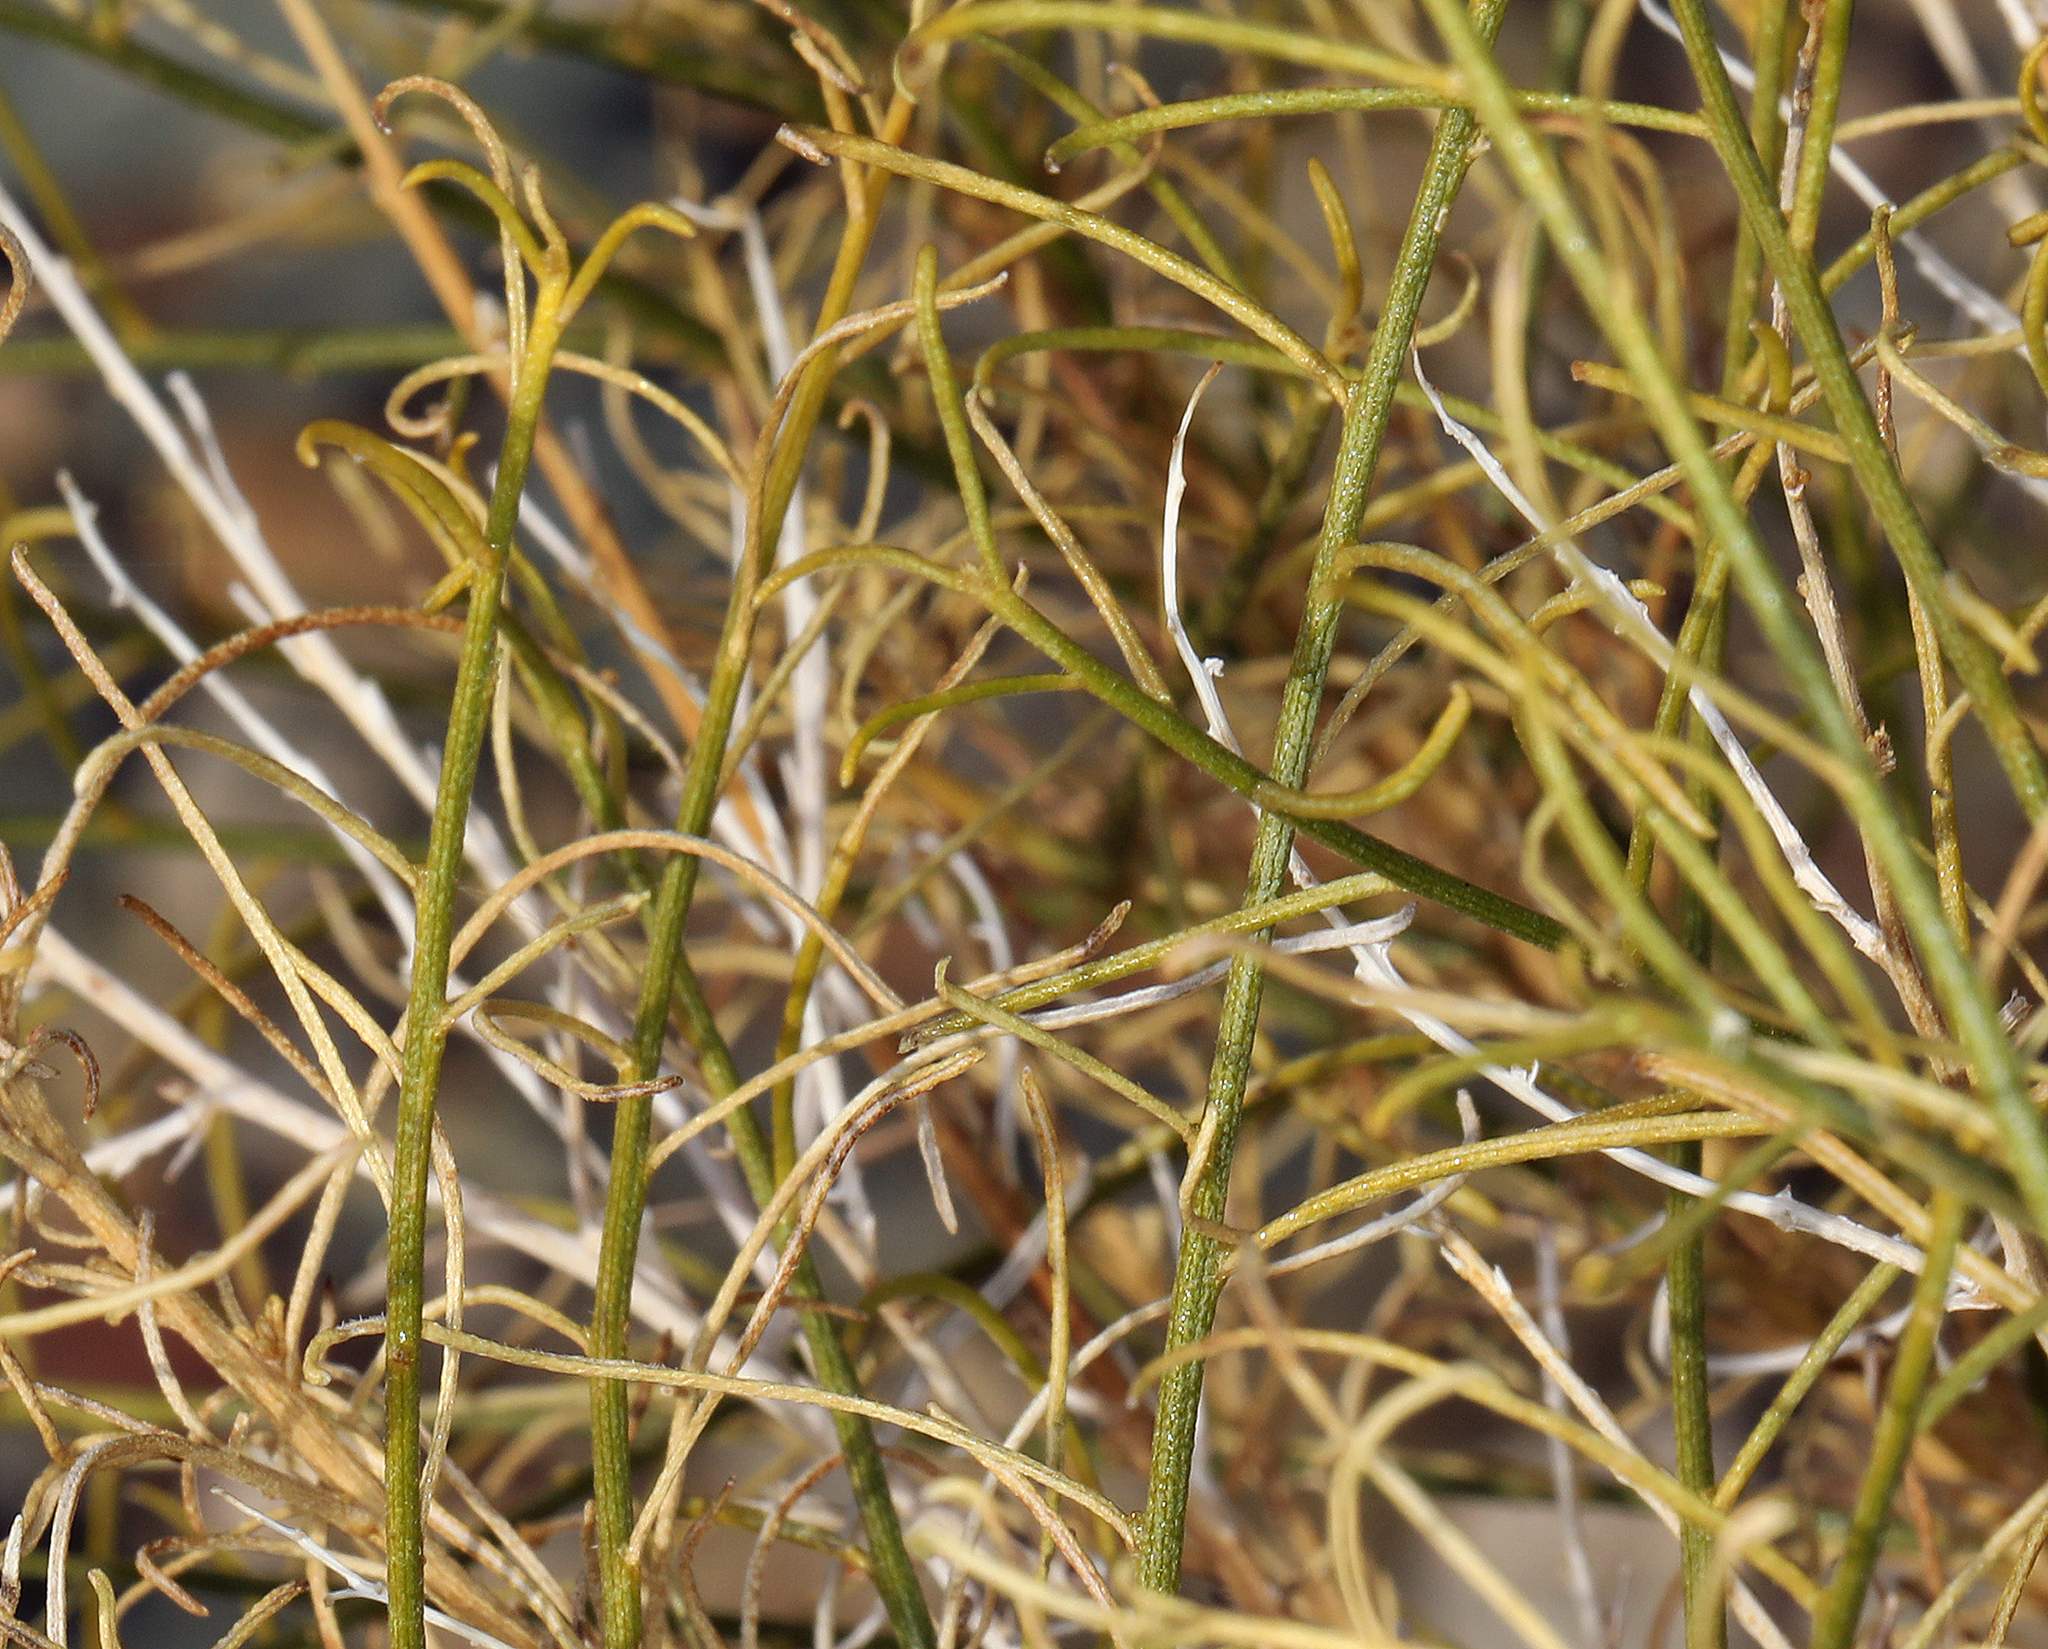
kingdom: Plantae
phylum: Tracheophyta
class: Magnoliopsida
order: Asterales
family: Asteraceae
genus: Ambrosia
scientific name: Ambrosia salsola
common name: Burrobrush
